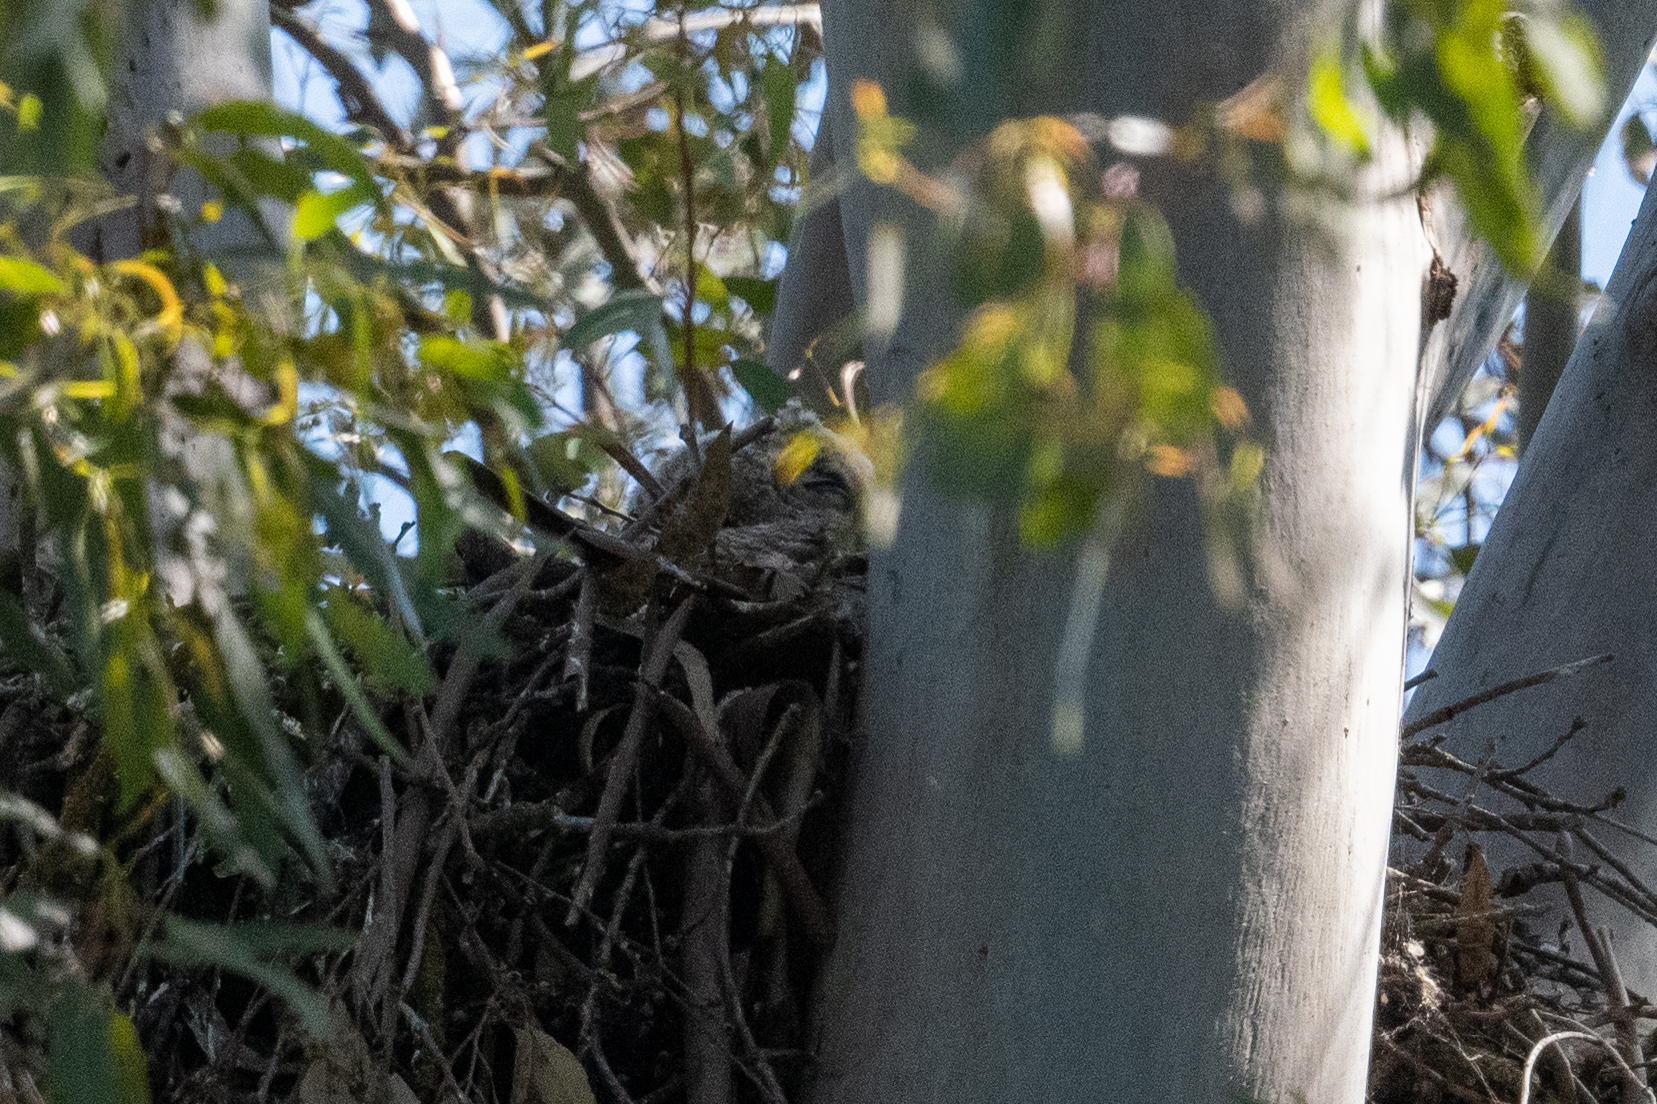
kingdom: Animalia
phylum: Chordata
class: Aves
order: Strigiformes
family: Strigidae
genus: Bubo
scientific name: Bubo virginianus
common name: Great horned owl
